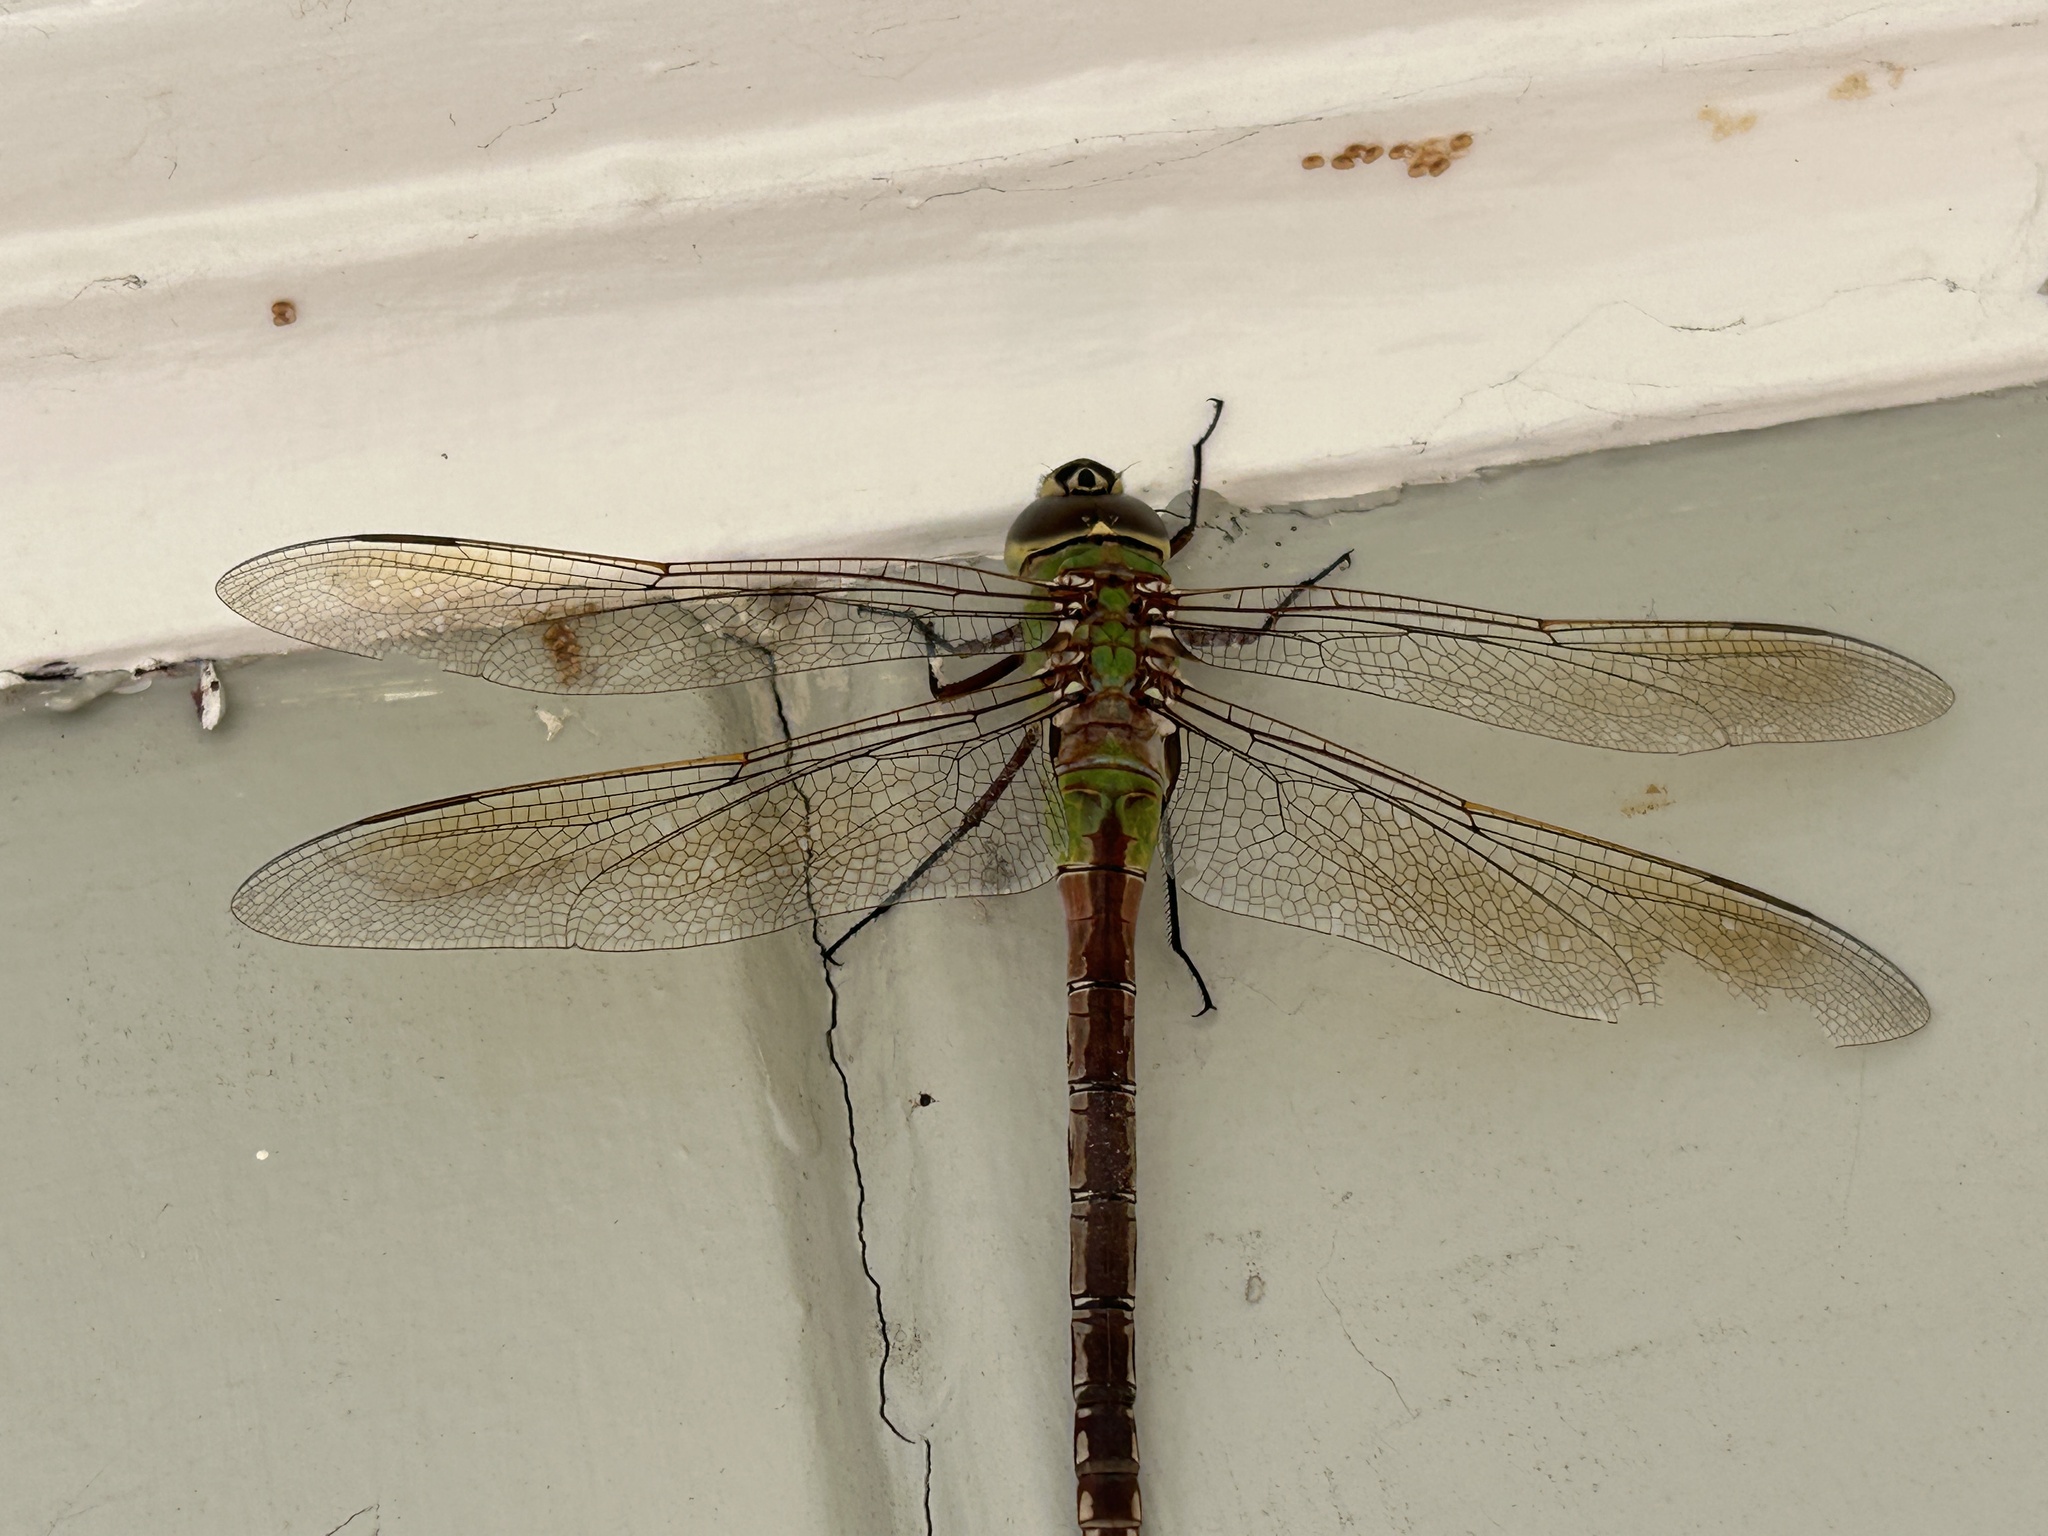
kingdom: Animalia
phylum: Arthropoda
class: Insecta
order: Odonata
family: Aeshnidae
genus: Anax
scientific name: Anax junius
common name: Common green darner
